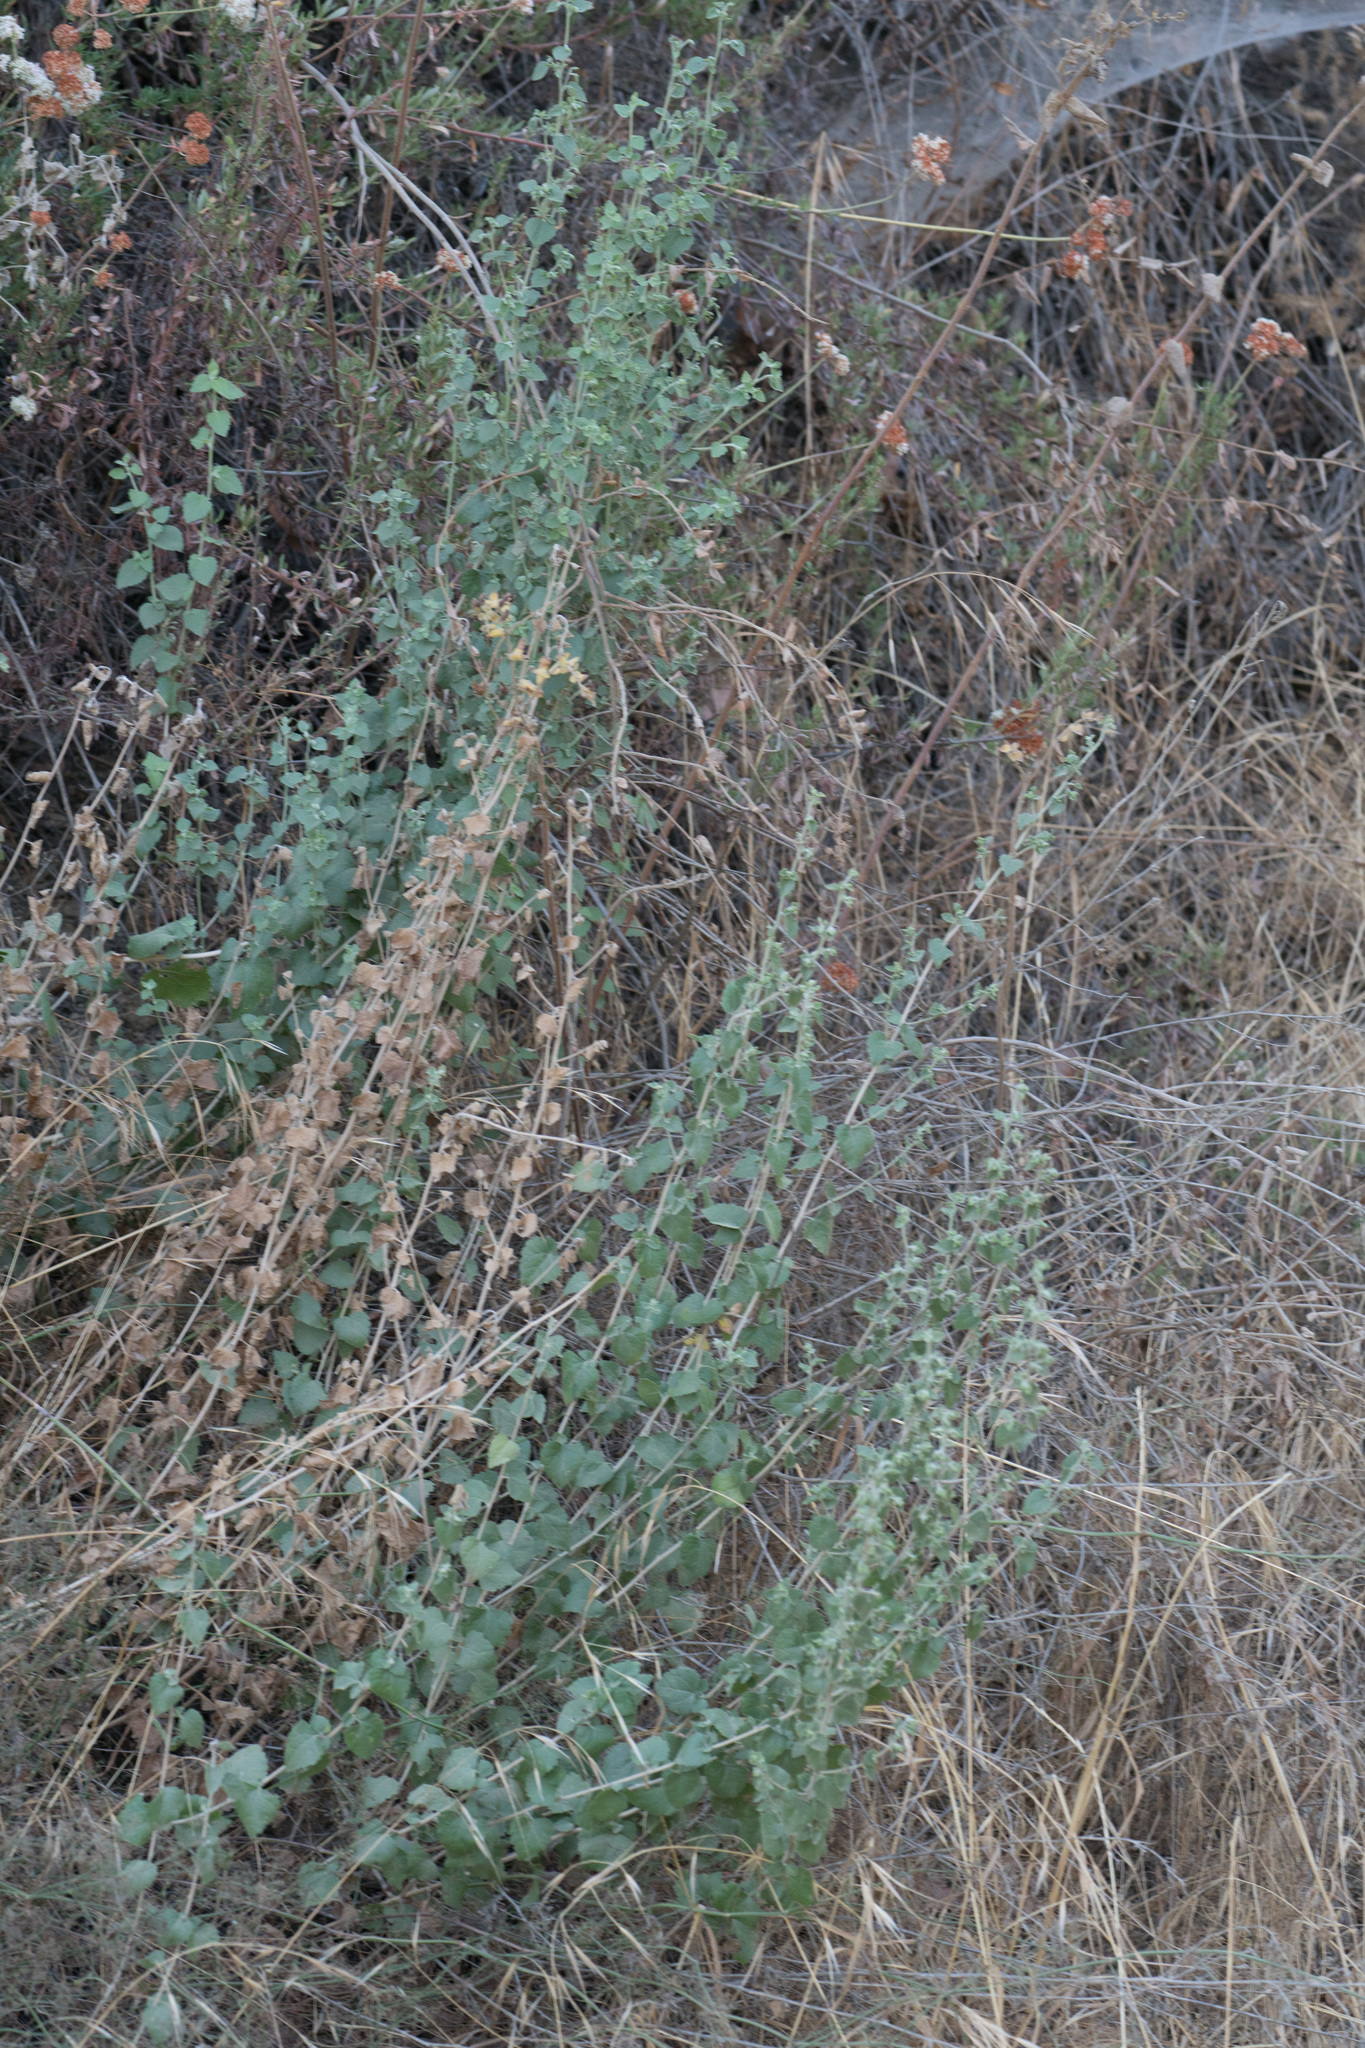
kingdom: Plantae
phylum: Tracheophyta
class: Magnoliopsida
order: Asterales
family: Asteraceae
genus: Brickellia
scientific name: Brickellia californica
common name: California brickellbush
